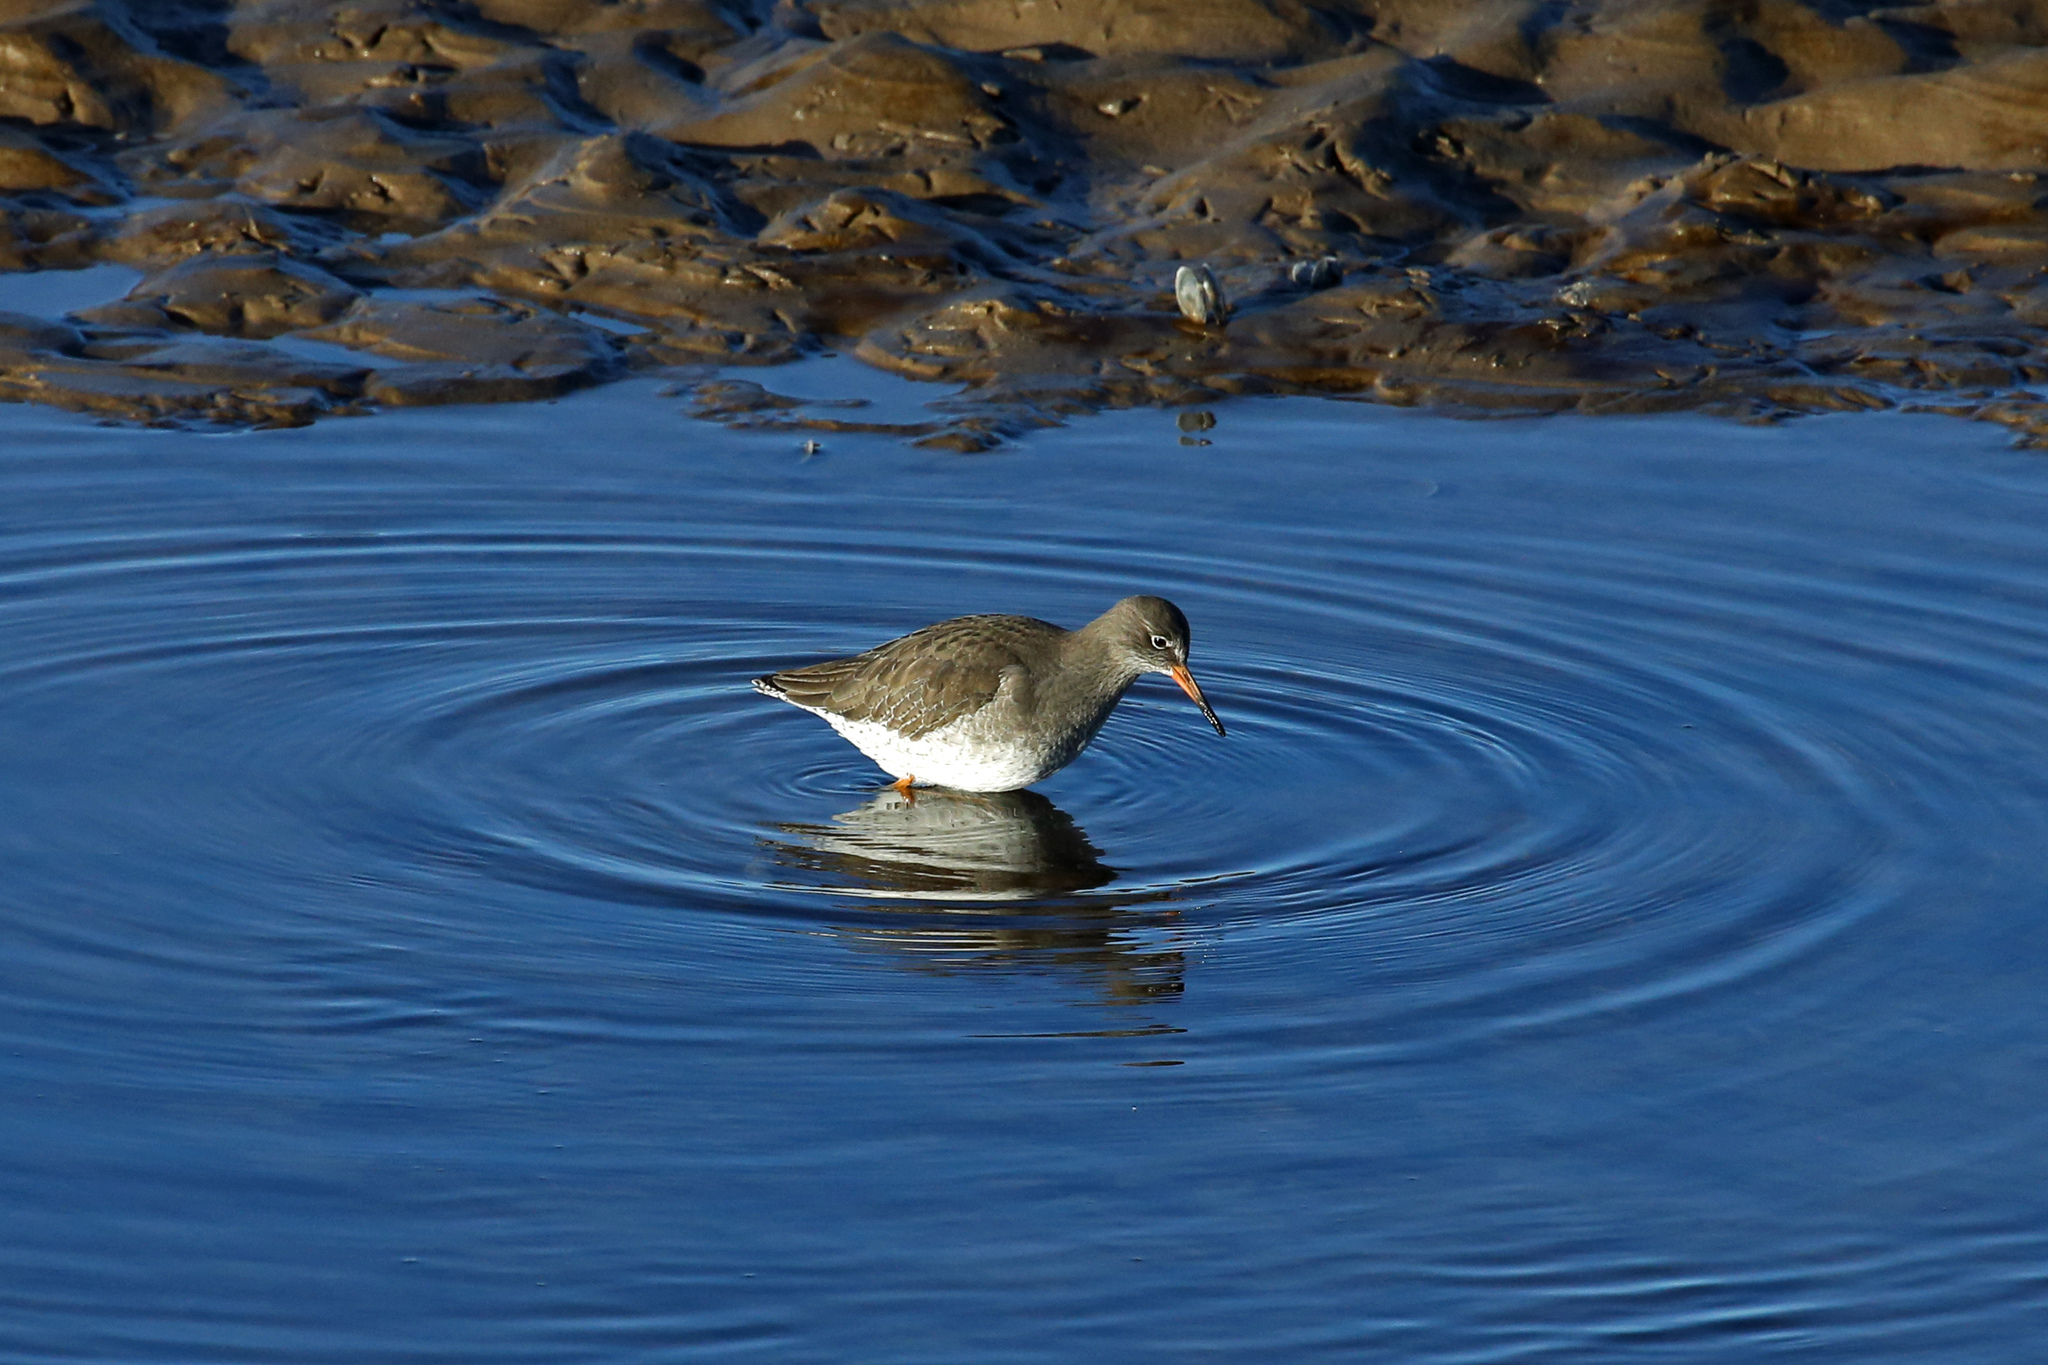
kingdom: Animalia
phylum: Chordata
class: Aves
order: Charadriiformes
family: Scolopacidae
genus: Tringa
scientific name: Tringa totanus
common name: Common redshank
